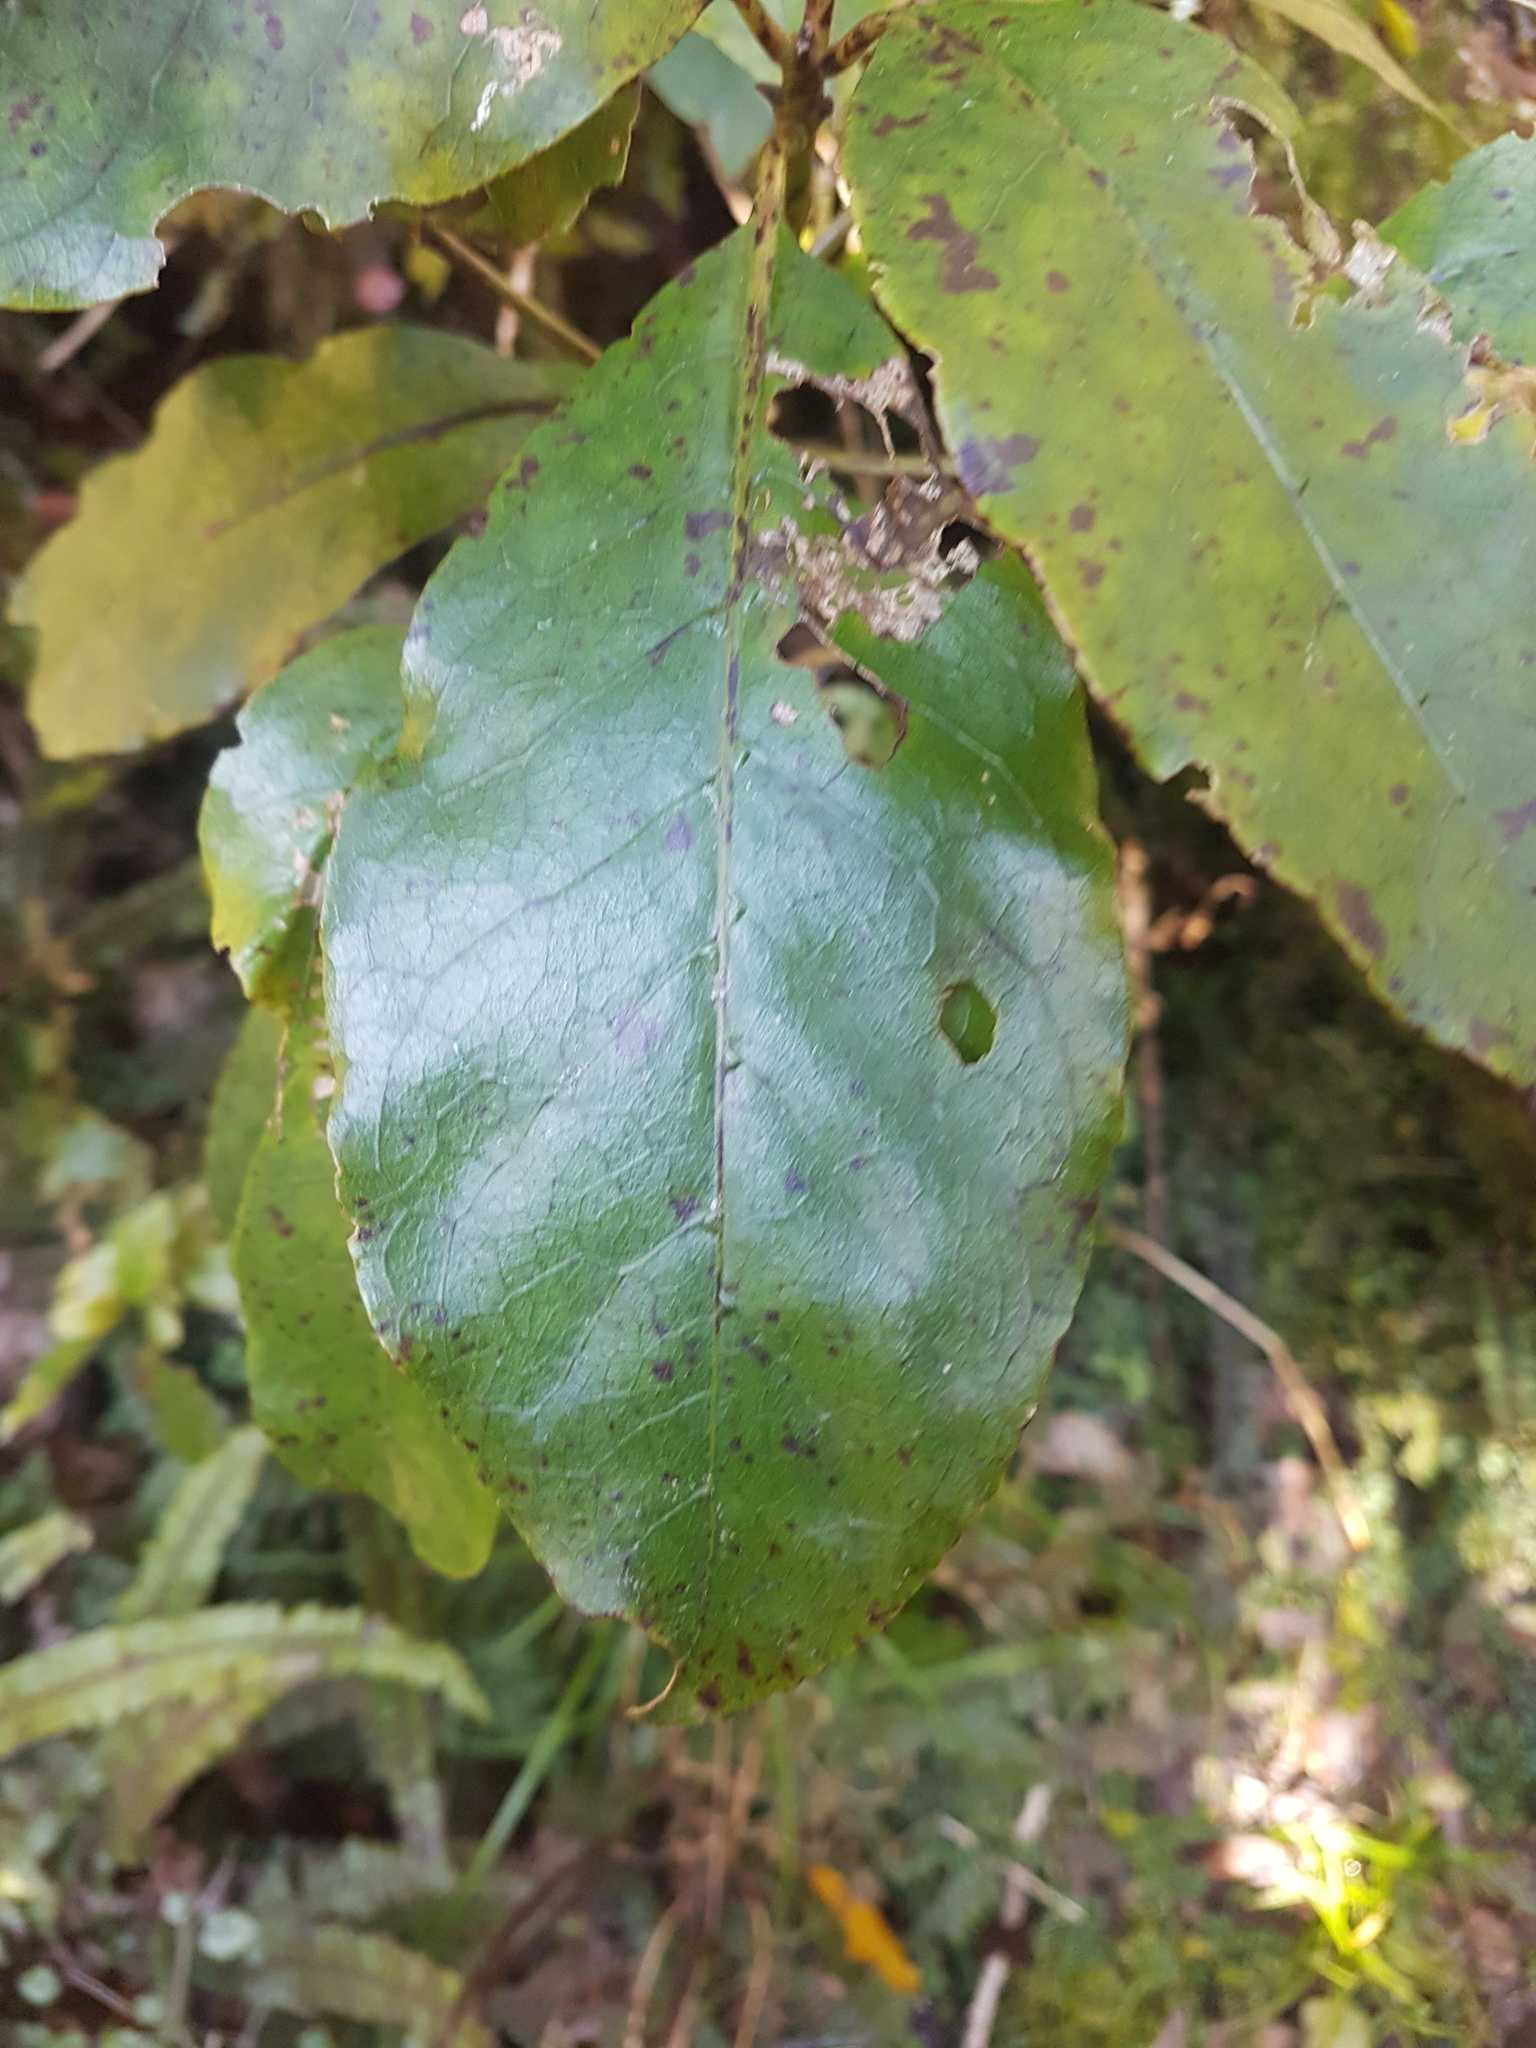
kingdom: Plantae
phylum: Tracheophyta
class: Magnoliopsida
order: Gentianales
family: Rubiaceae
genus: Coprosma
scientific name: Coprosma autumnalis
